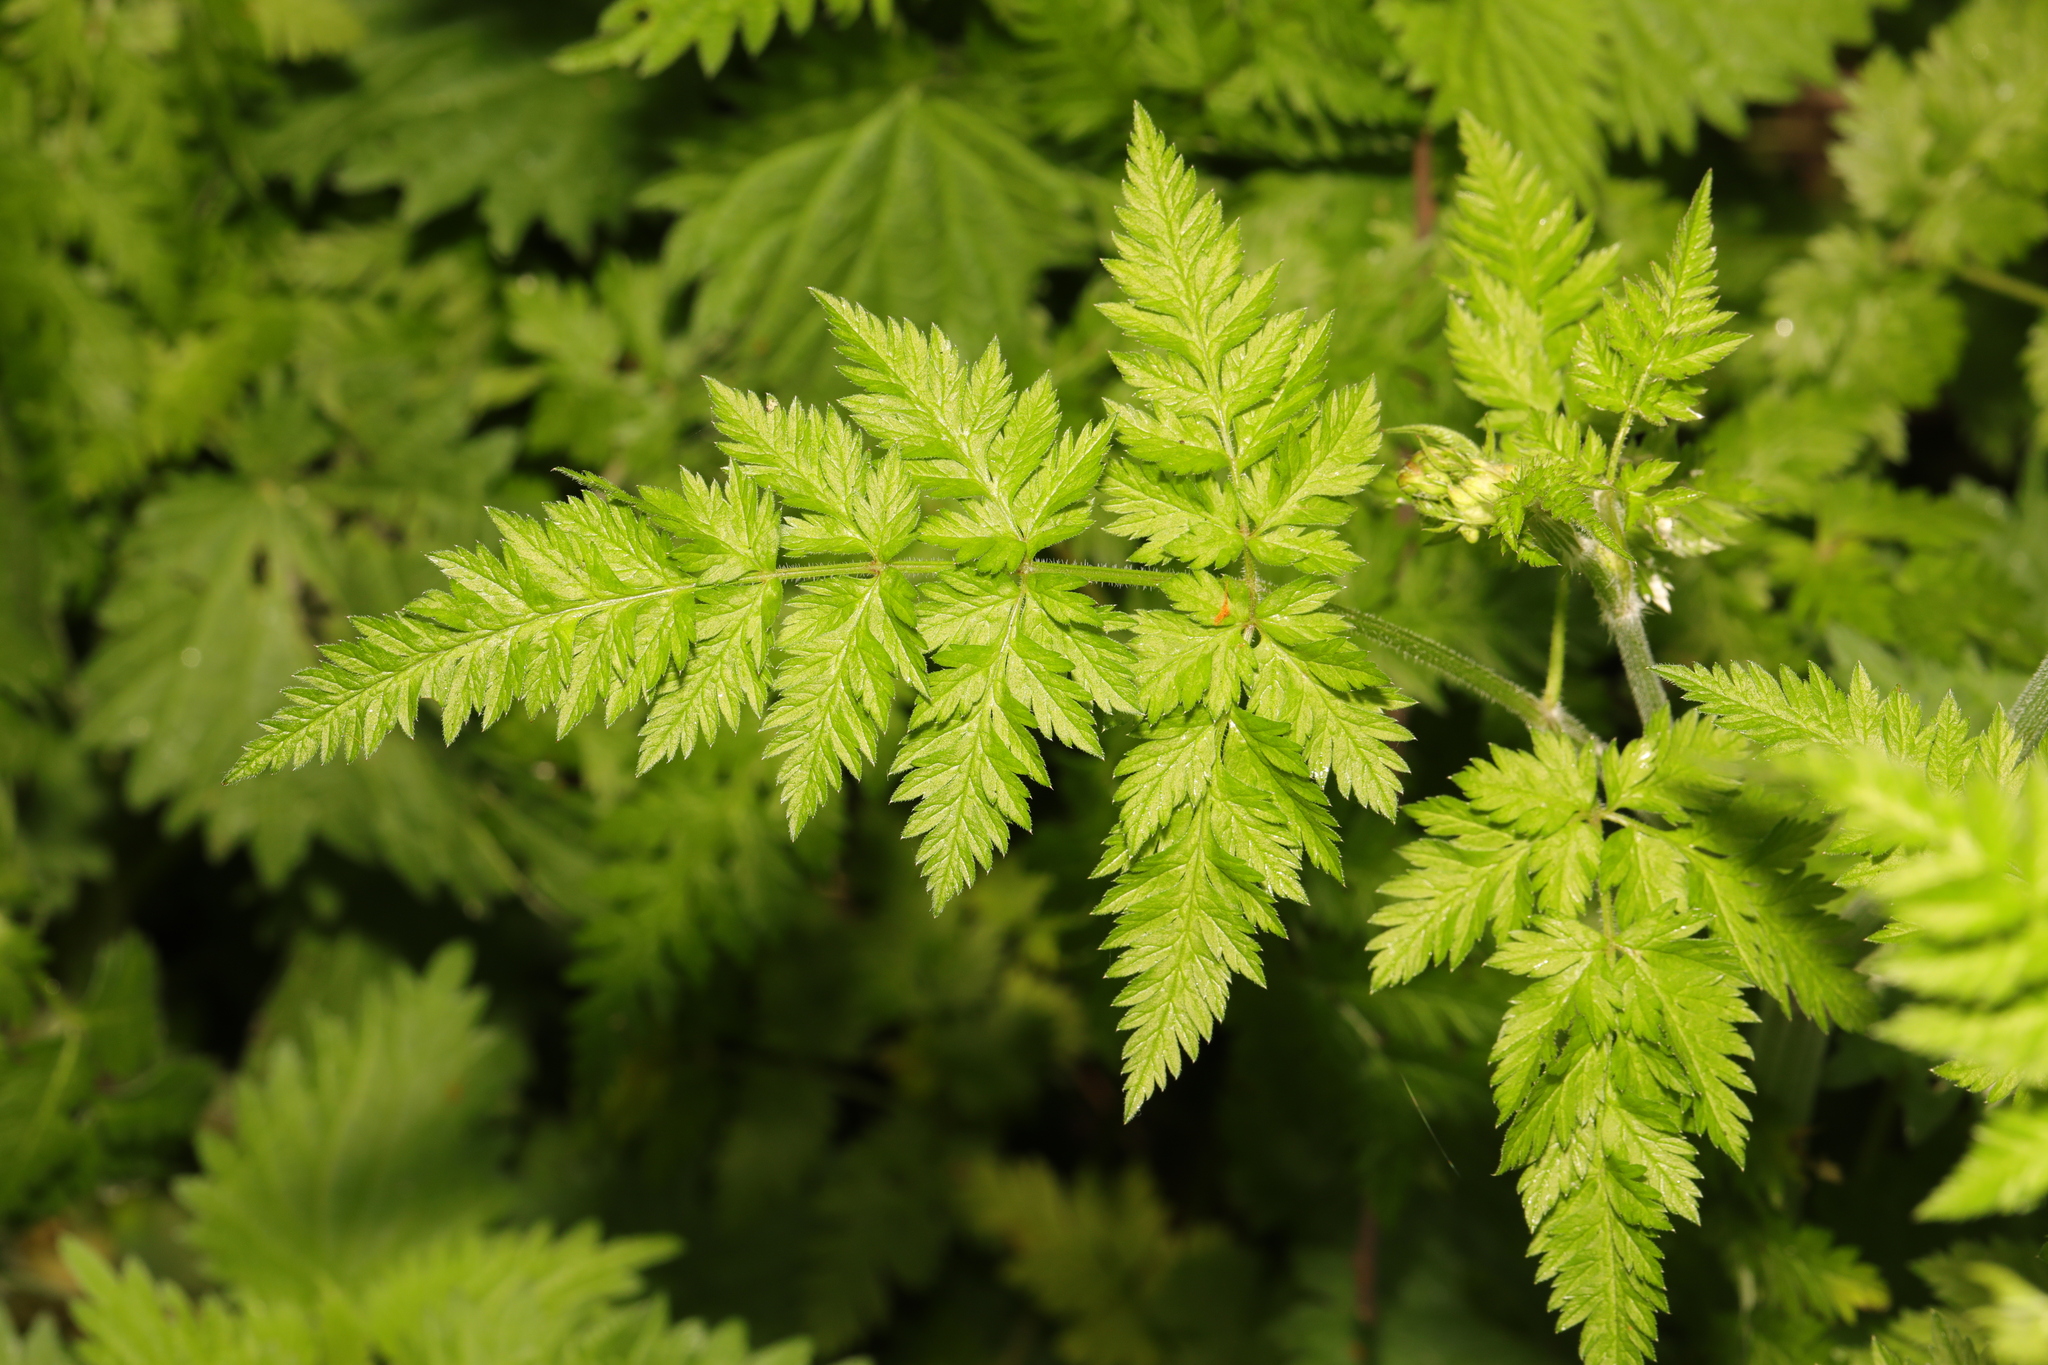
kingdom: Plantae
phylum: Tracheophyta
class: Magnoliopsida
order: Apiales
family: Apiaceae
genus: Anthriscus
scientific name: Anthriscus sylvestris
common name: Cow parsley
